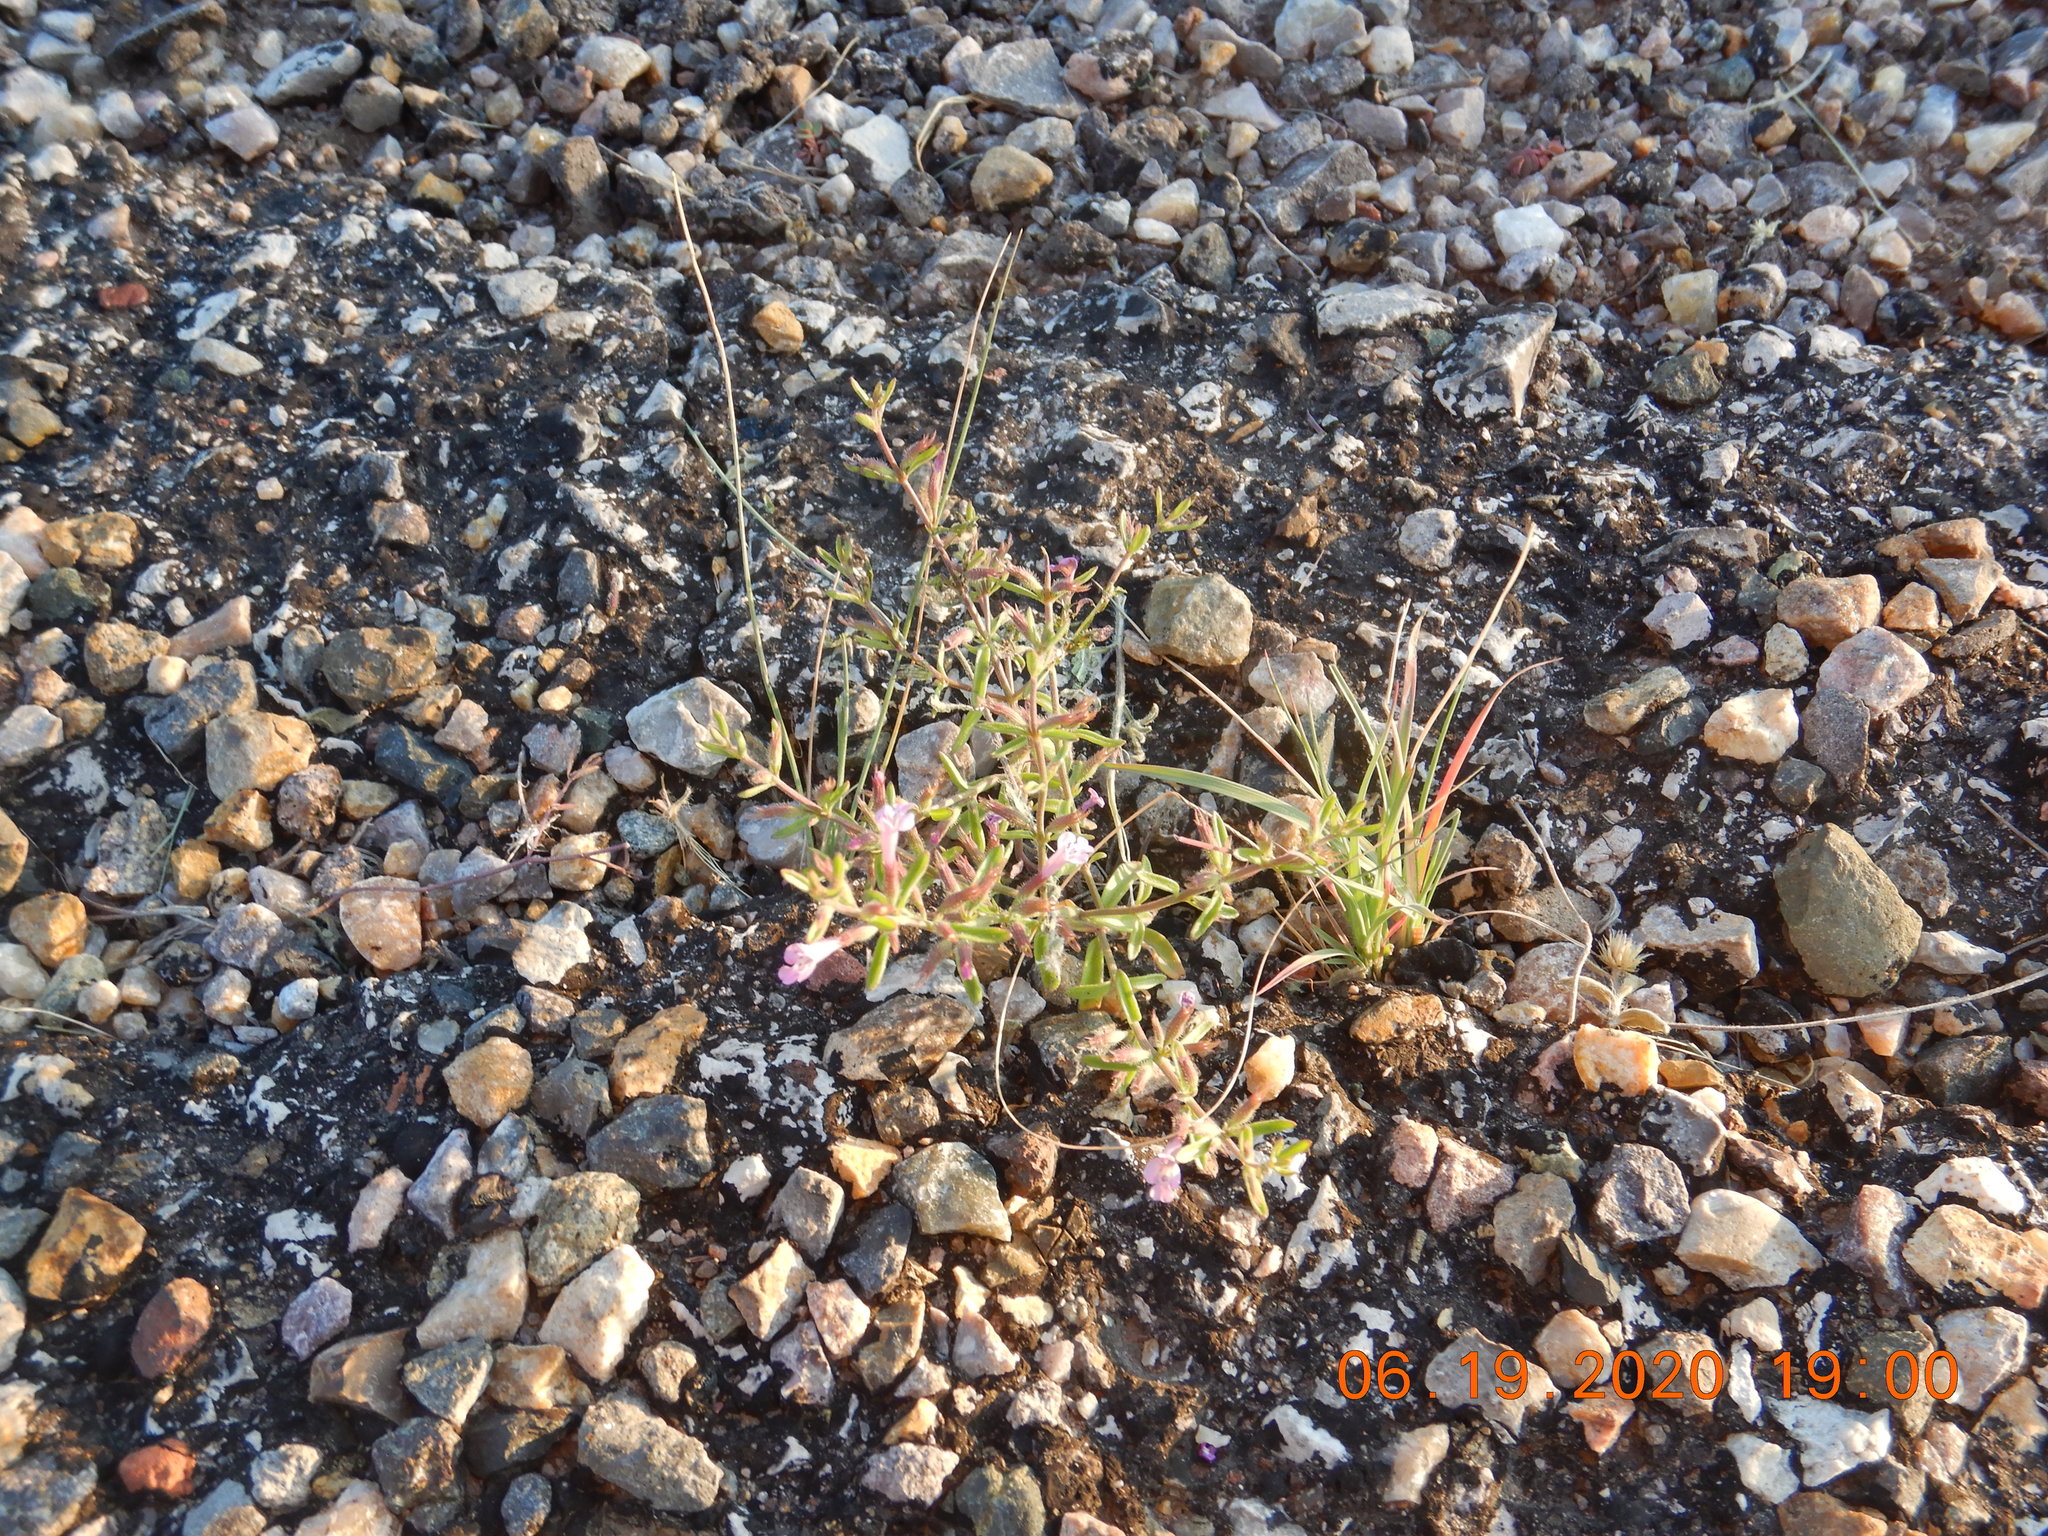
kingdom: Plantae
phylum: Tracheophyta
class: Magnoliopsida
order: Lamiales
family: Lamiaceae
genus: Hedeoma
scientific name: Hedeoma drummondii
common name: New mexico pennyroyal
